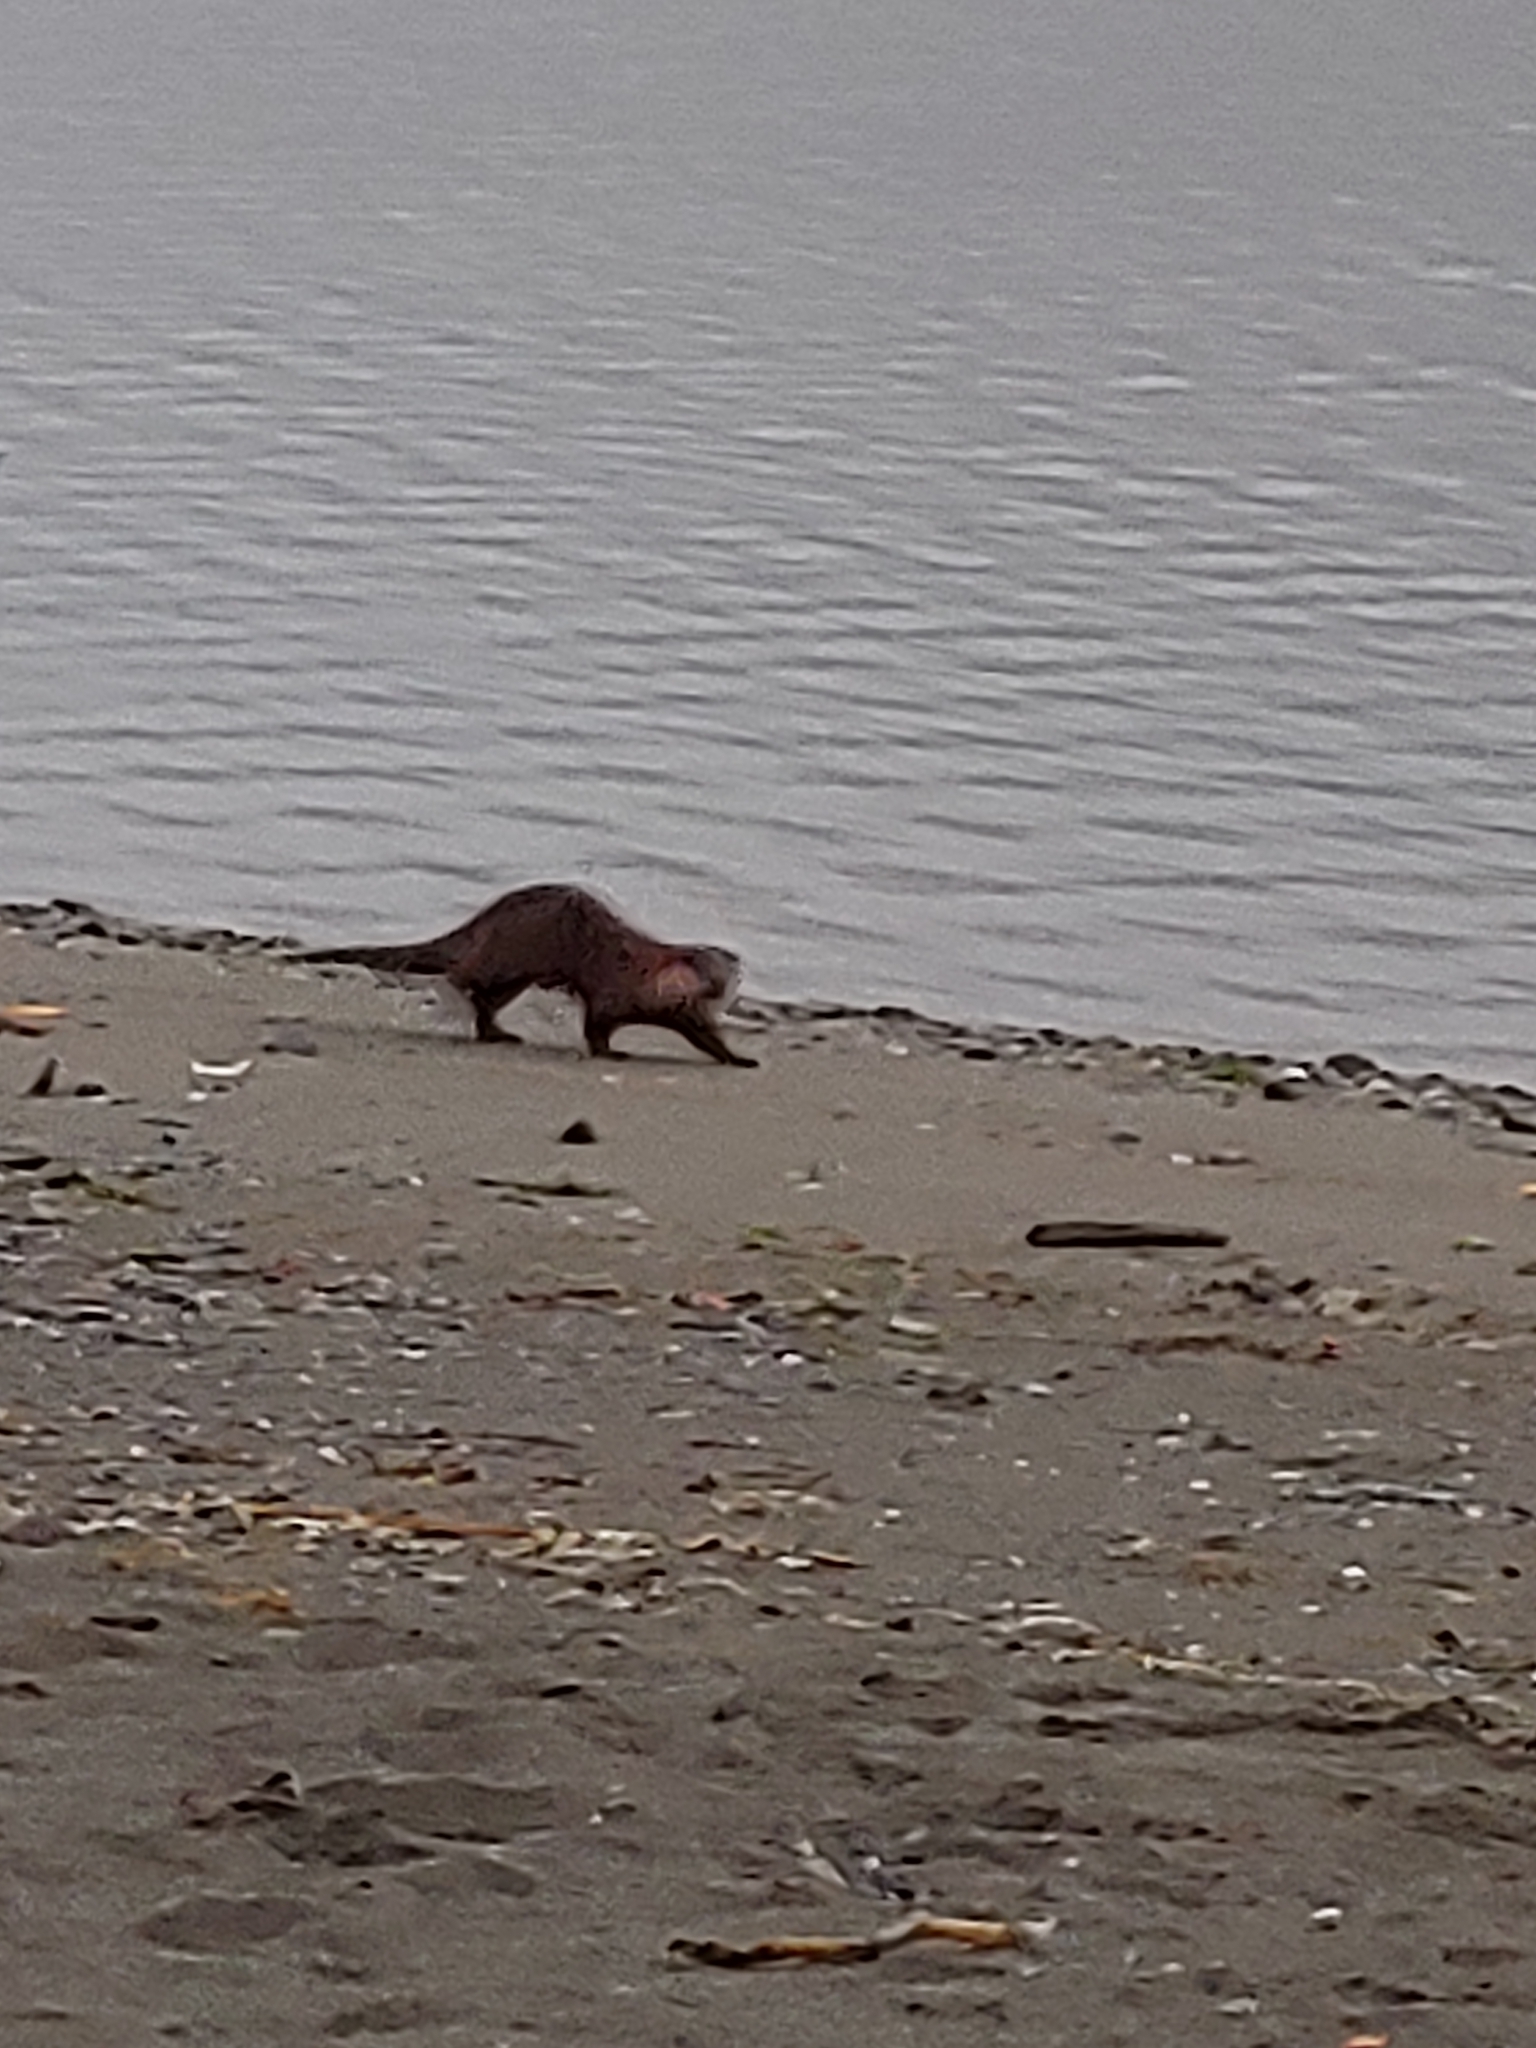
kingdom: Animalia
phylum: Chordata
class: Mammalia
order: Carnivora
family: Mustelidae
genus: Lontra
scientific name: Lontra canadensis
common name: North american river otter
